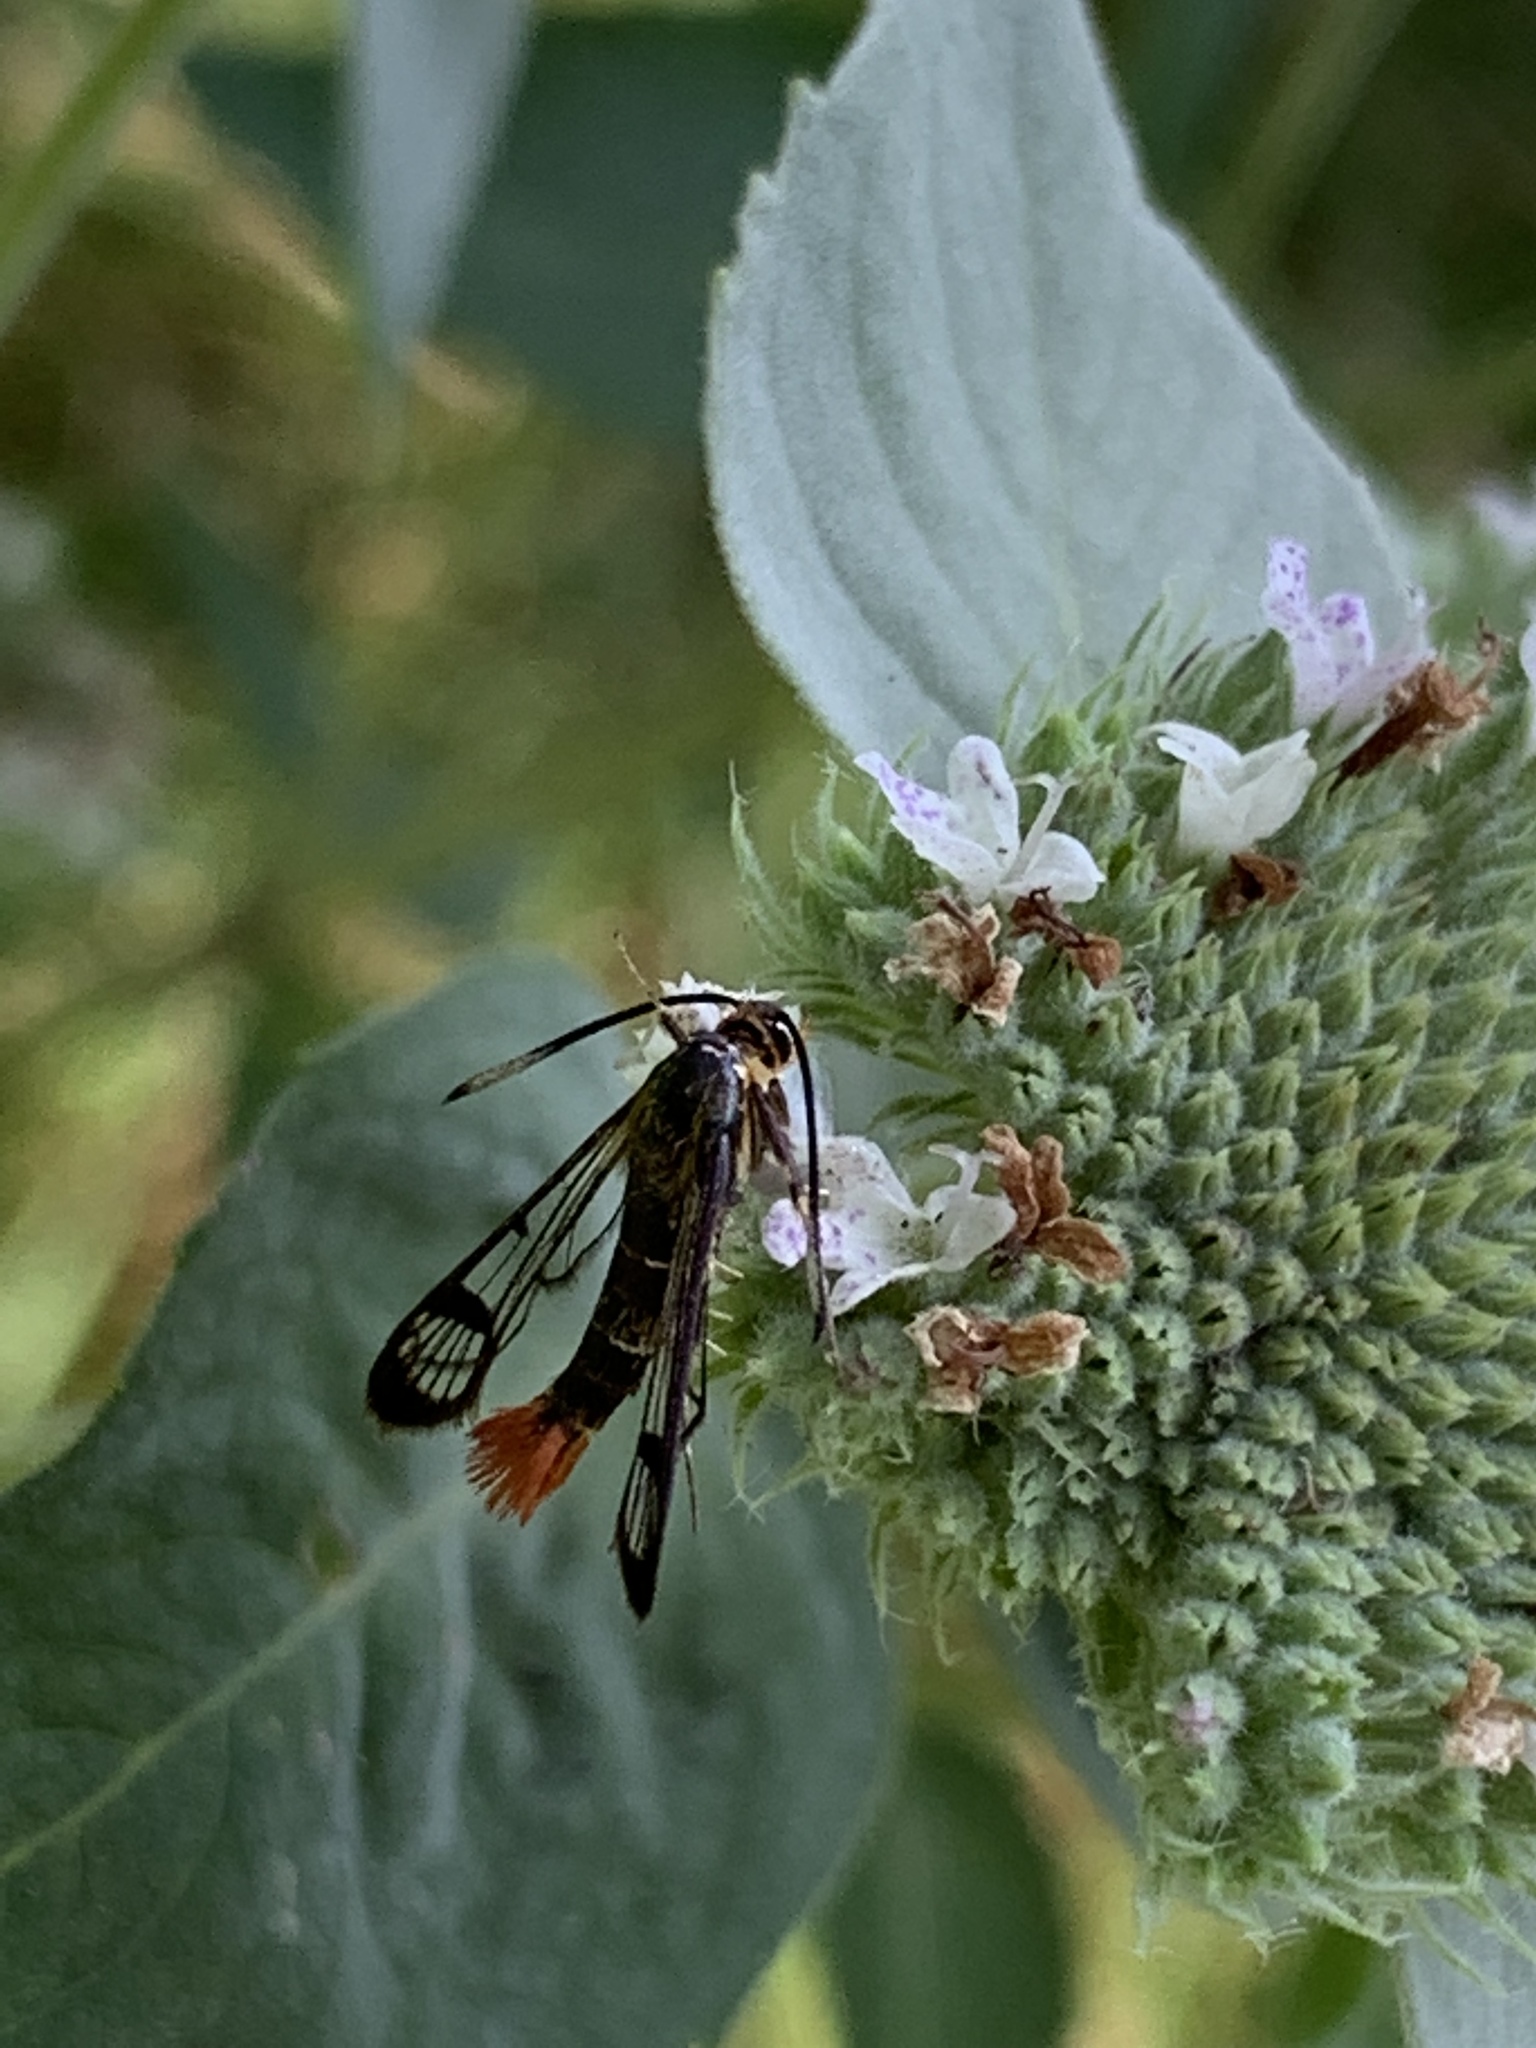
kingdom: Animalia
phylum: Arthropoda
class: Insecta
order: Lepidoptera
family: Sesiidae
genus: Synanthedon
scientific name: Synanthedon acerrubri
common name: Maple clearwing moth
